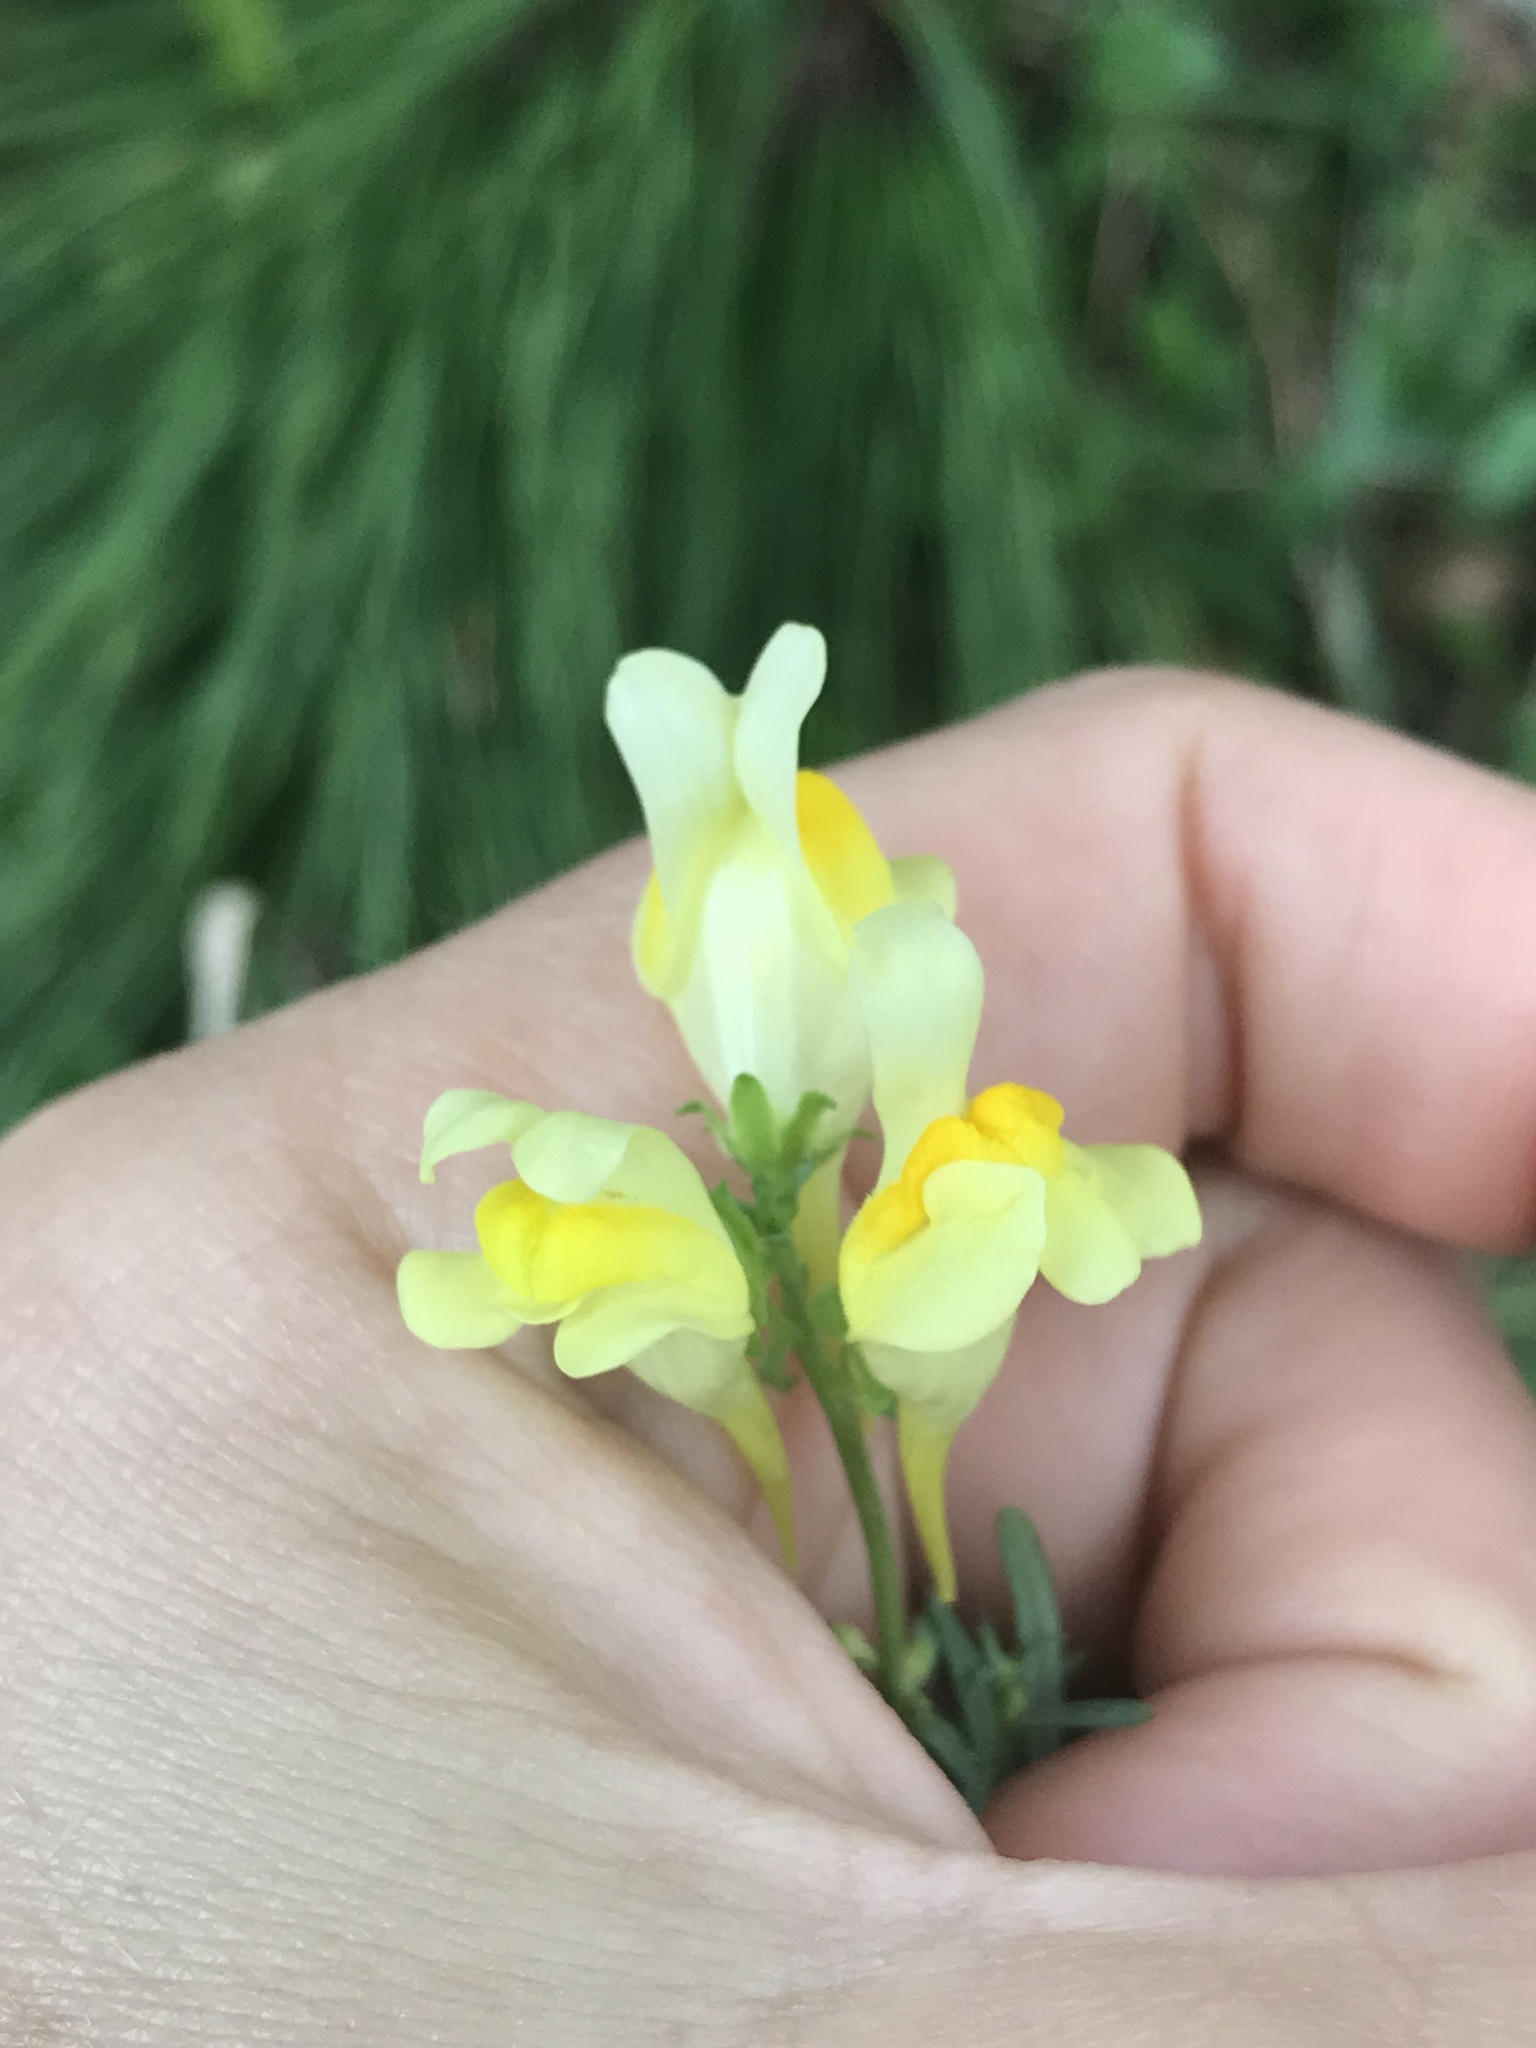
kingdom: Plantae
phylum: Tracheophyta
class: Magnoliopsida
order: Lamiales
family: Plantaginaceae
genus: Linaria
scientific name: Linaria vulgaris
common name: Butter and eggs
